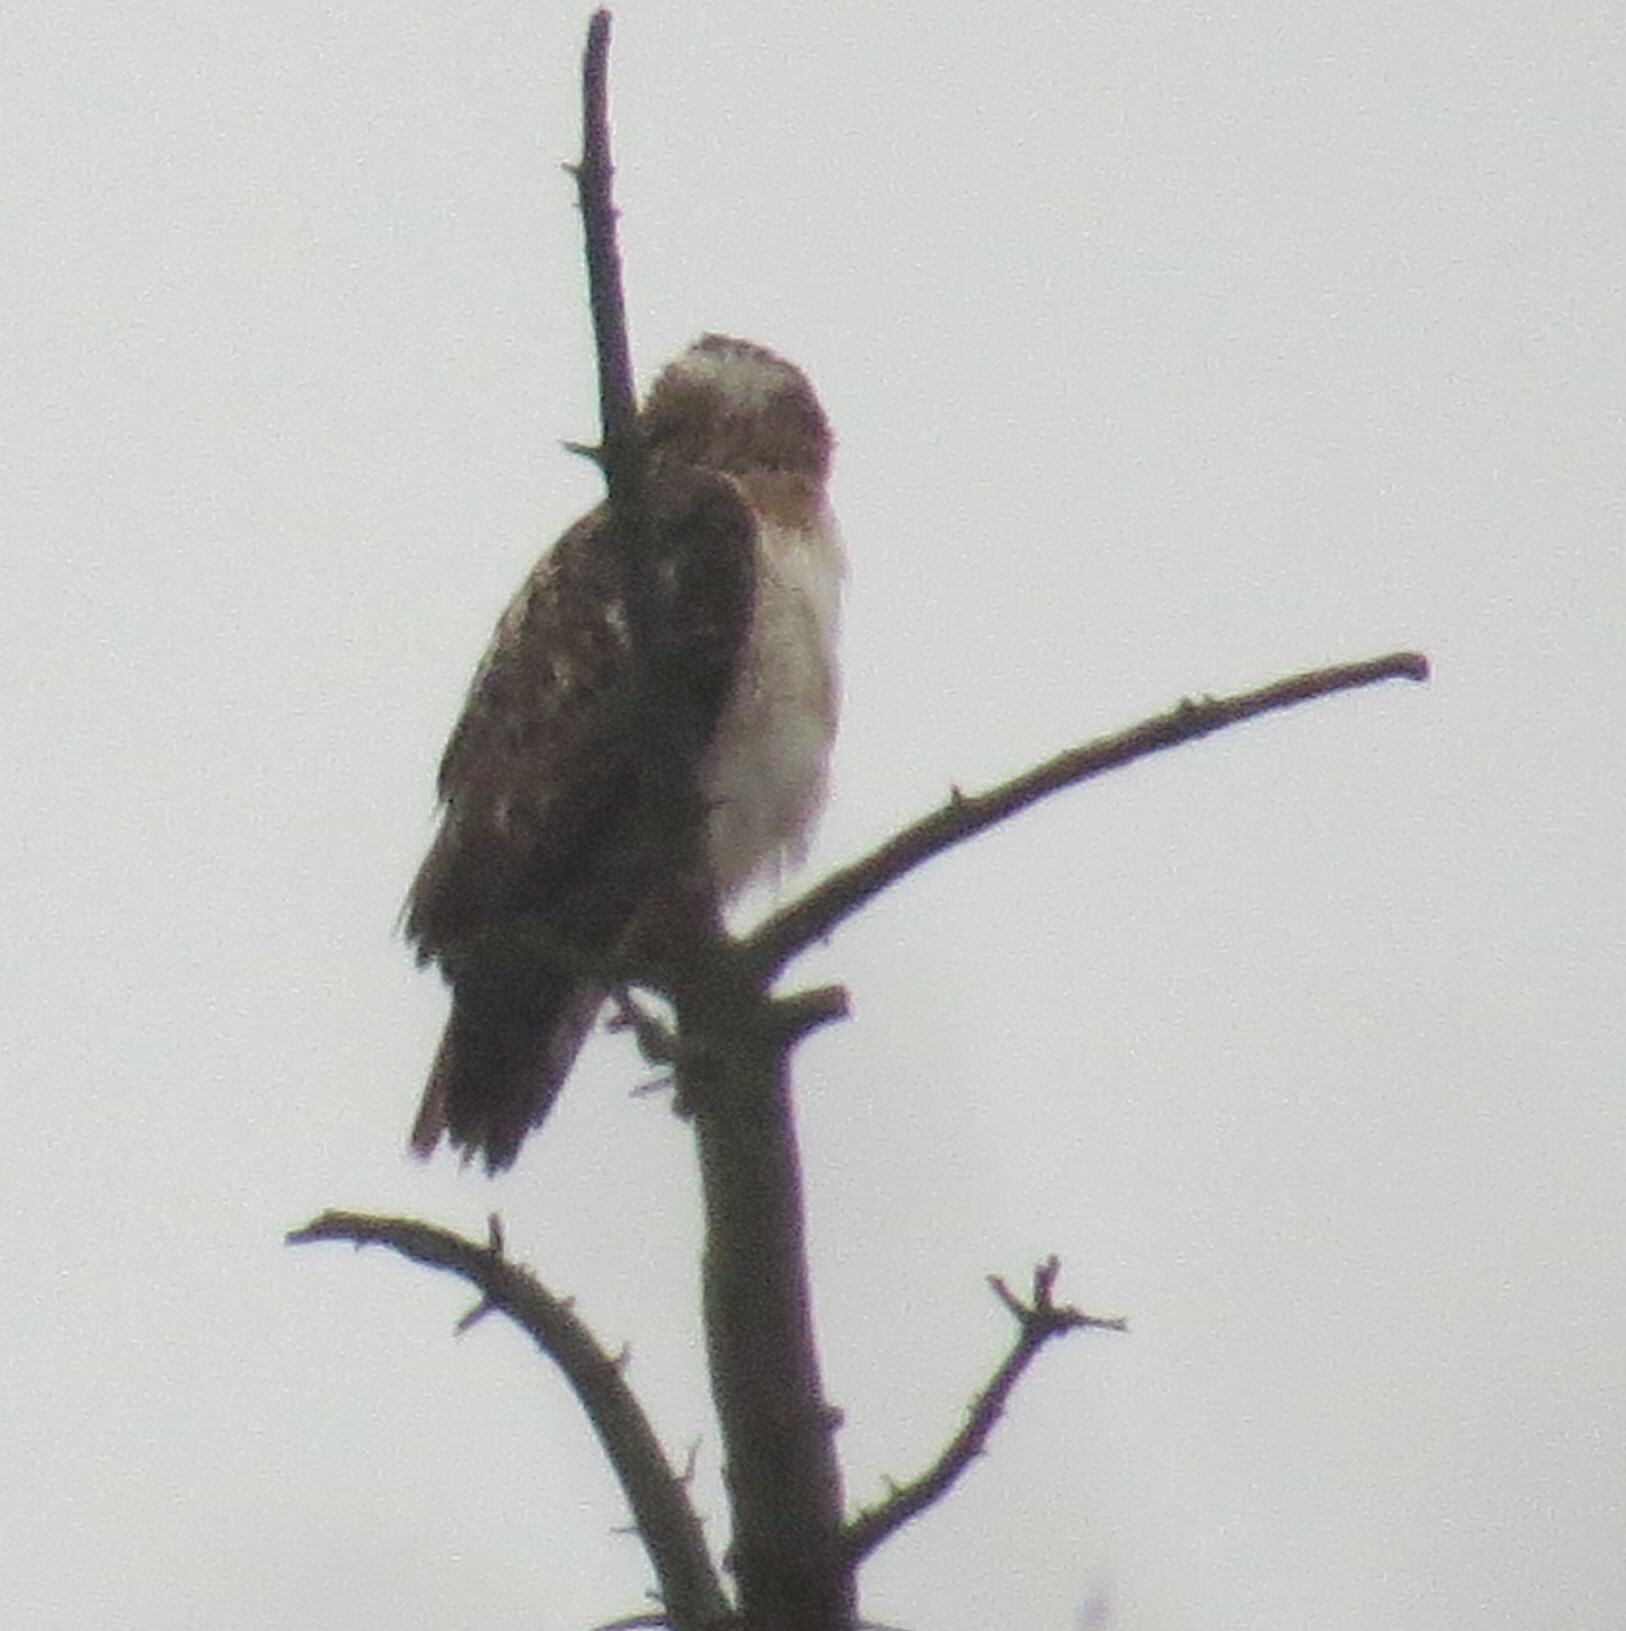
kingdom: Animalia
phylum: Chordata
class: Aves
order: Accipitriformes
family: Accipitridae
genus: Buteo
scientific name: Buteo jamaicensis
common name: Red-tailed hawk
